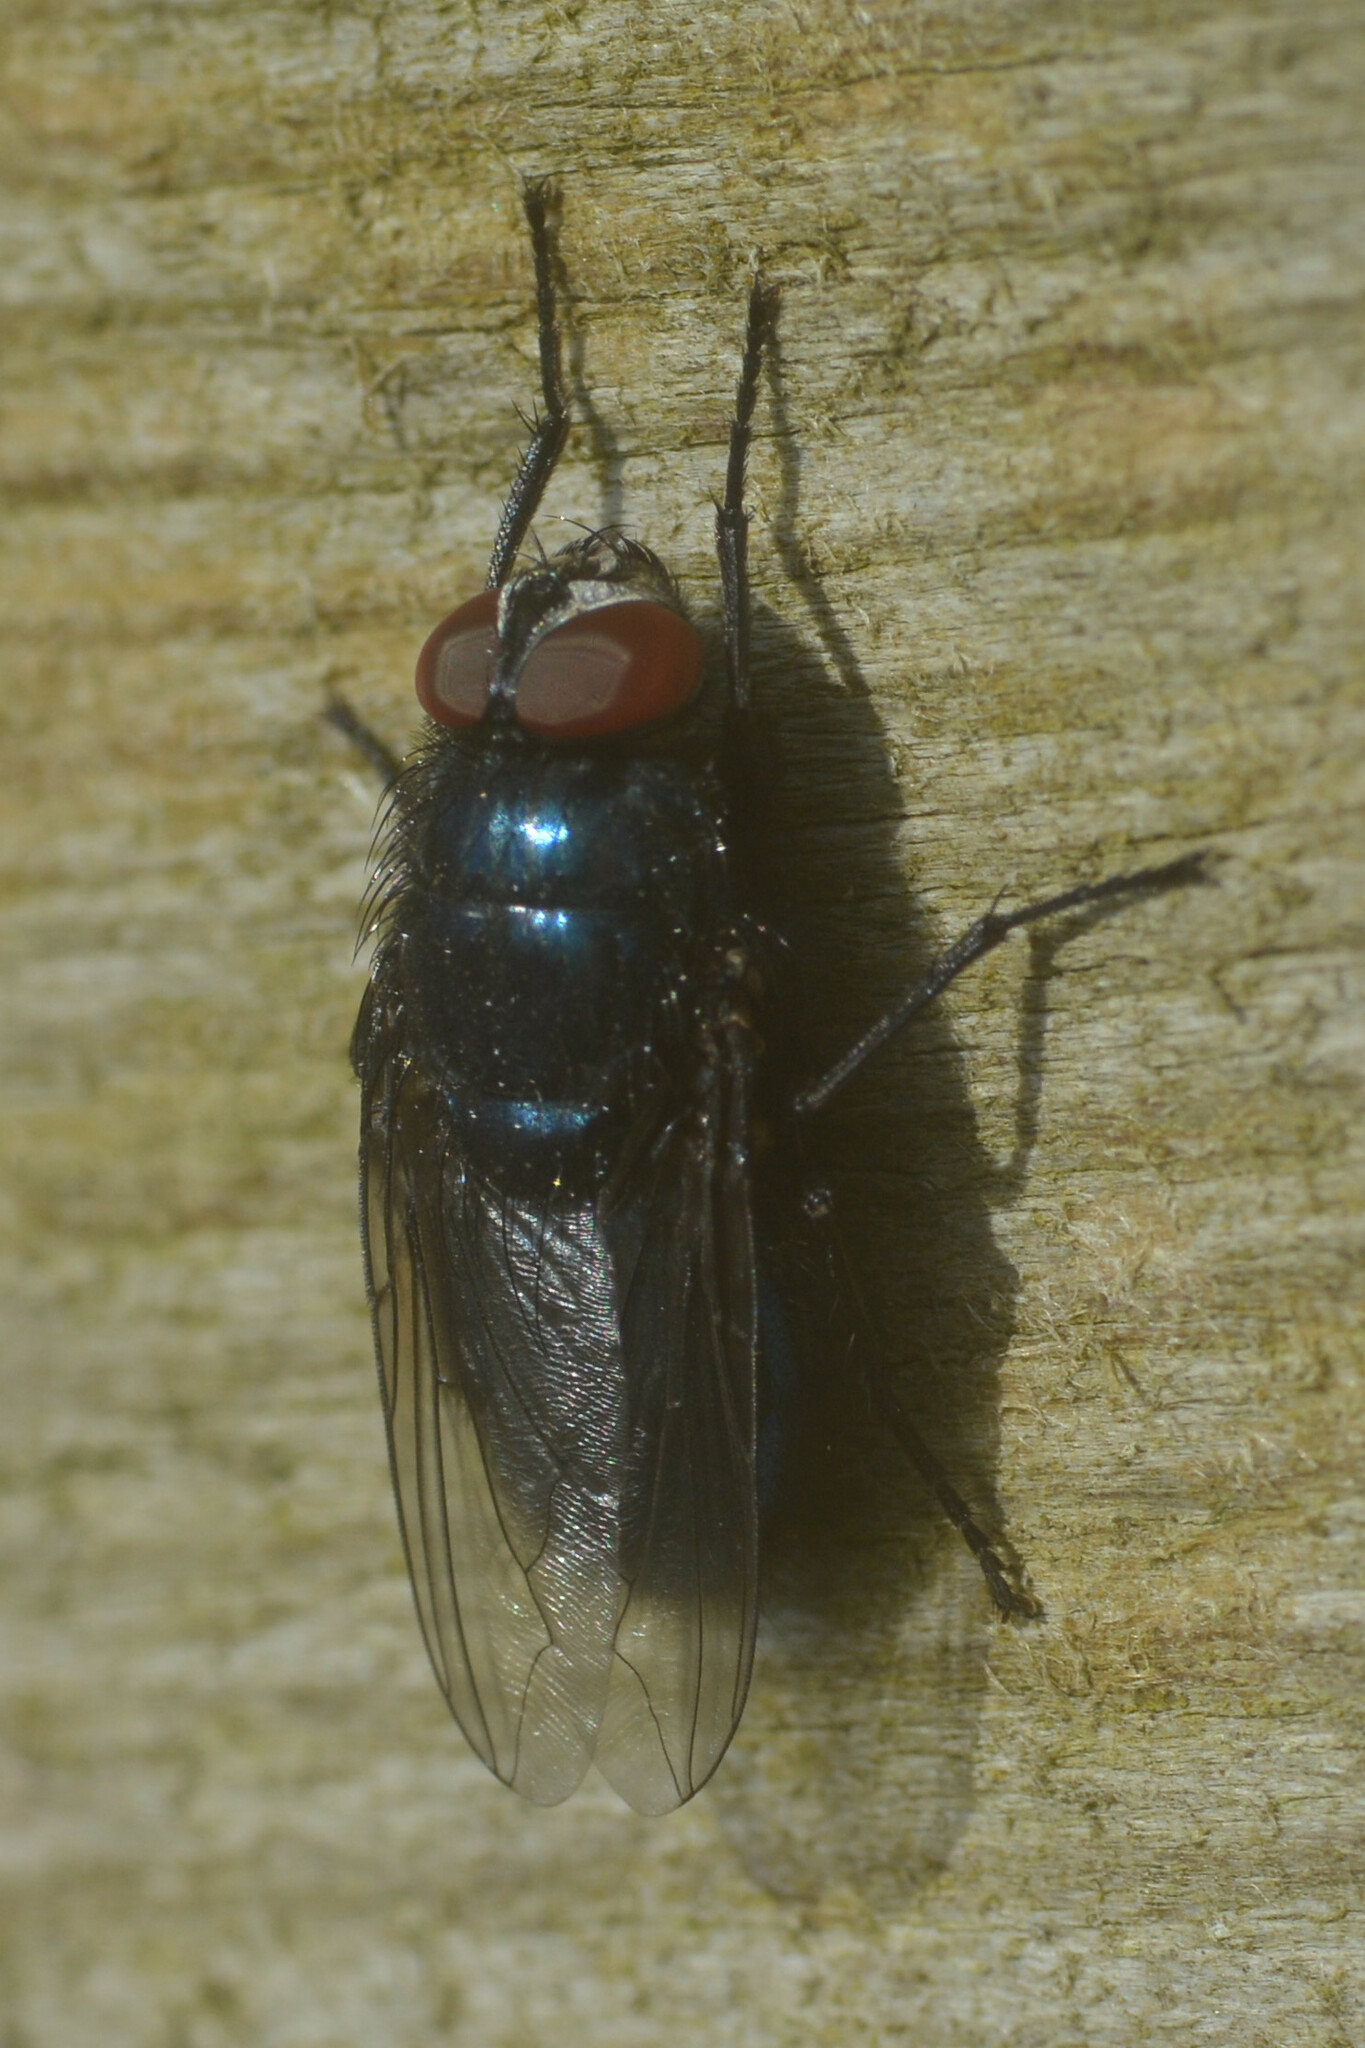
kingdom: Animalia
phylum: Arthropoda
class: Insecta
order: Diptera
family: Calliphoridae
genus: Protocalliphora
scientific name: Protocalliphora azurea
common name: Bird blowfly
